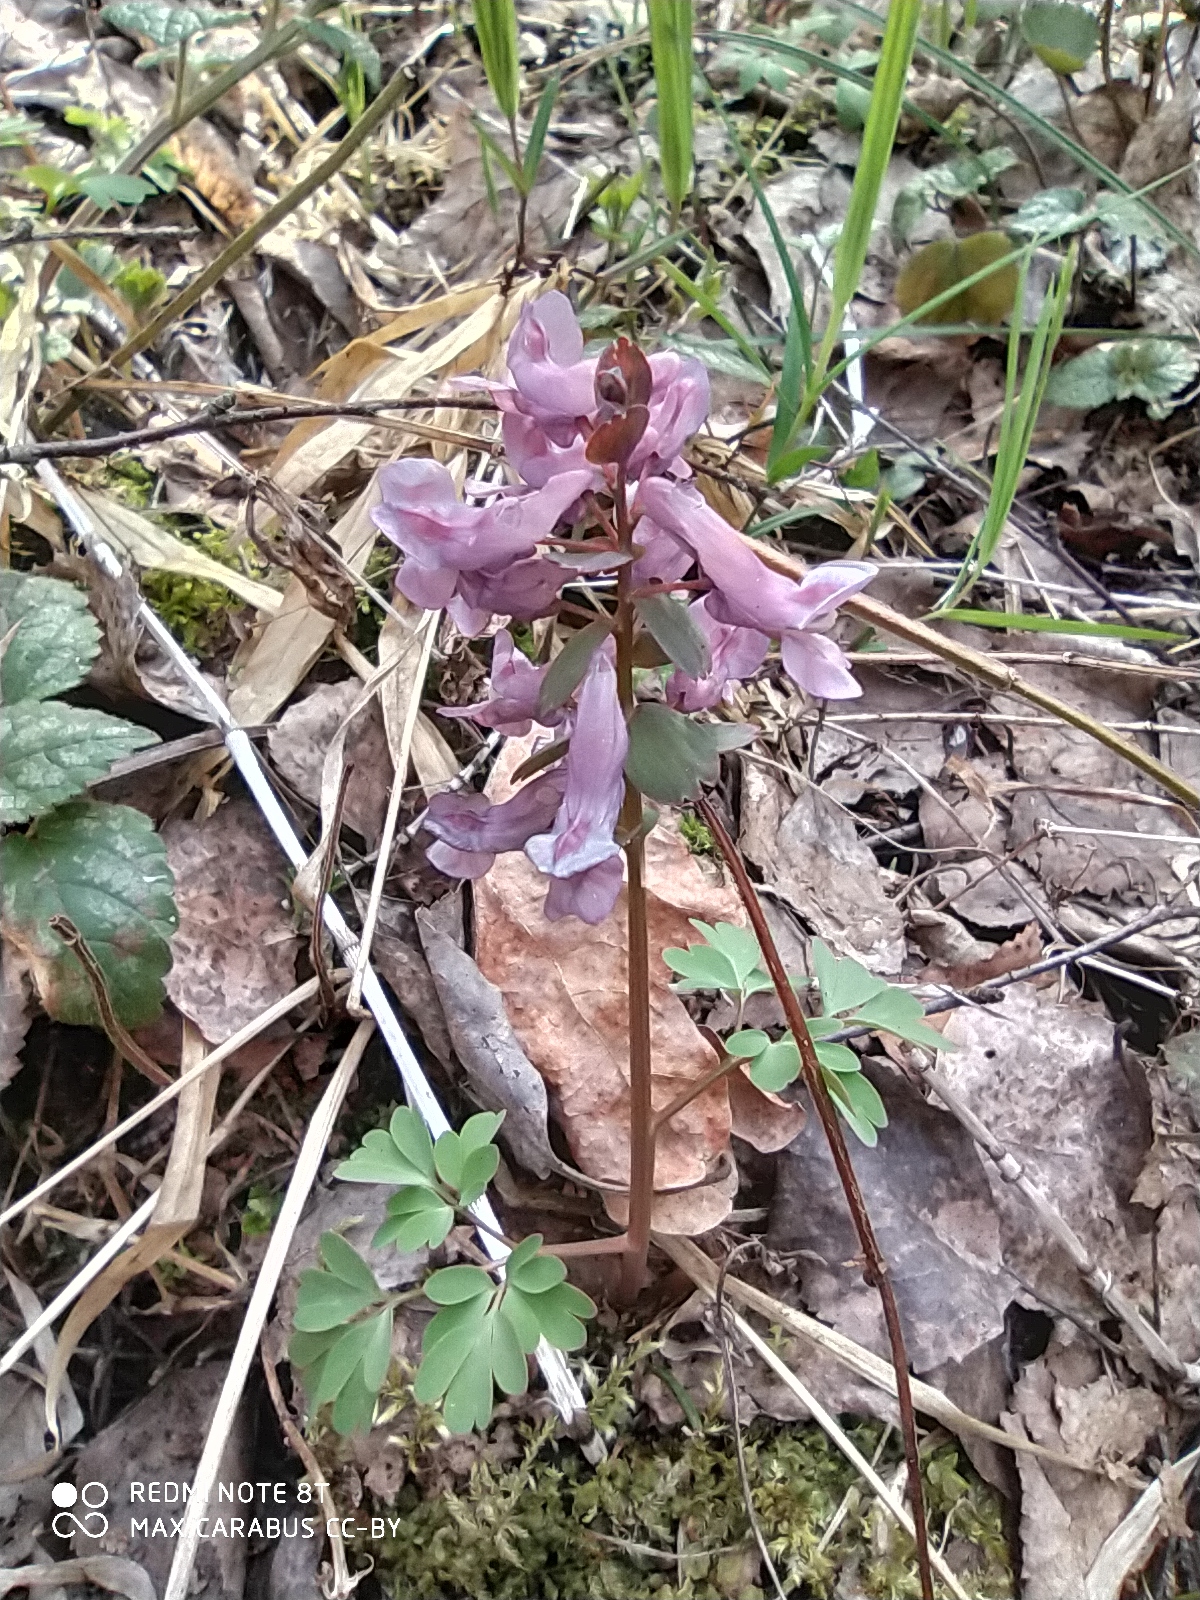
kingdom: Plantae
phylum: Tracheophyta
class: Magnoliopsida
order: Ranunculales
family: Papaveraceae
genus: Corydalis
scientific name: Corydalis solida
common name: Bird-in-a-bush
